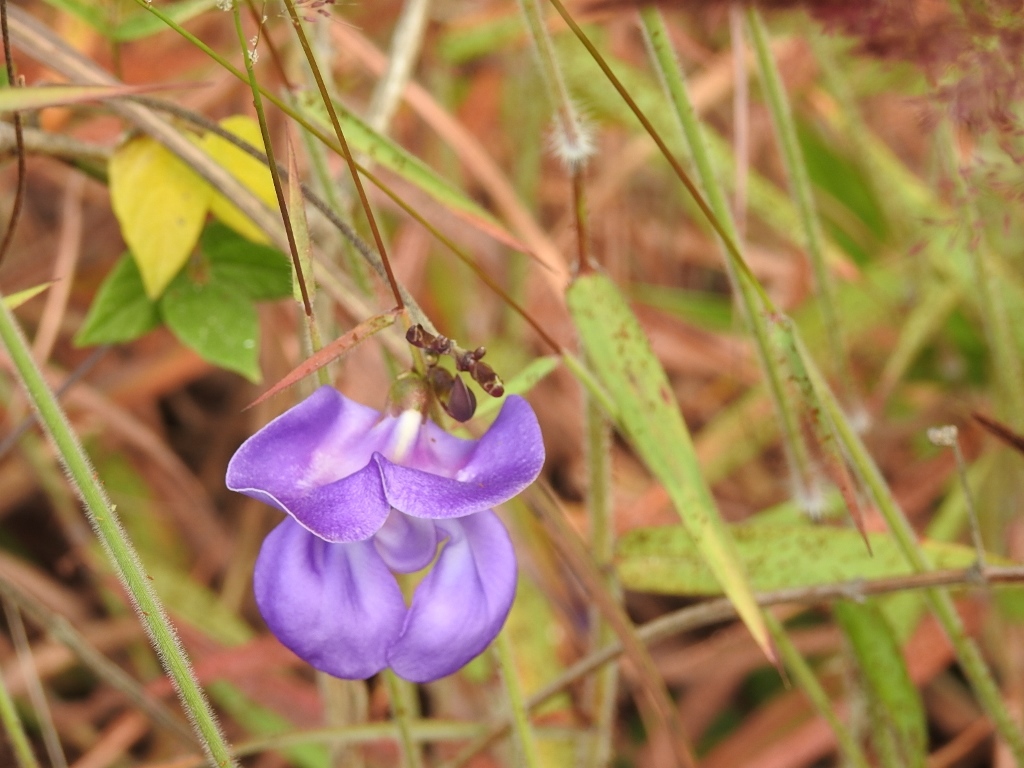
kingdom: Plantae
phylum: Tracheophyta
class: Magnoliopsida
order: Fabales
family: Fabaceae
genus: Leptospron
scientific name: Leptospron adenanthum
